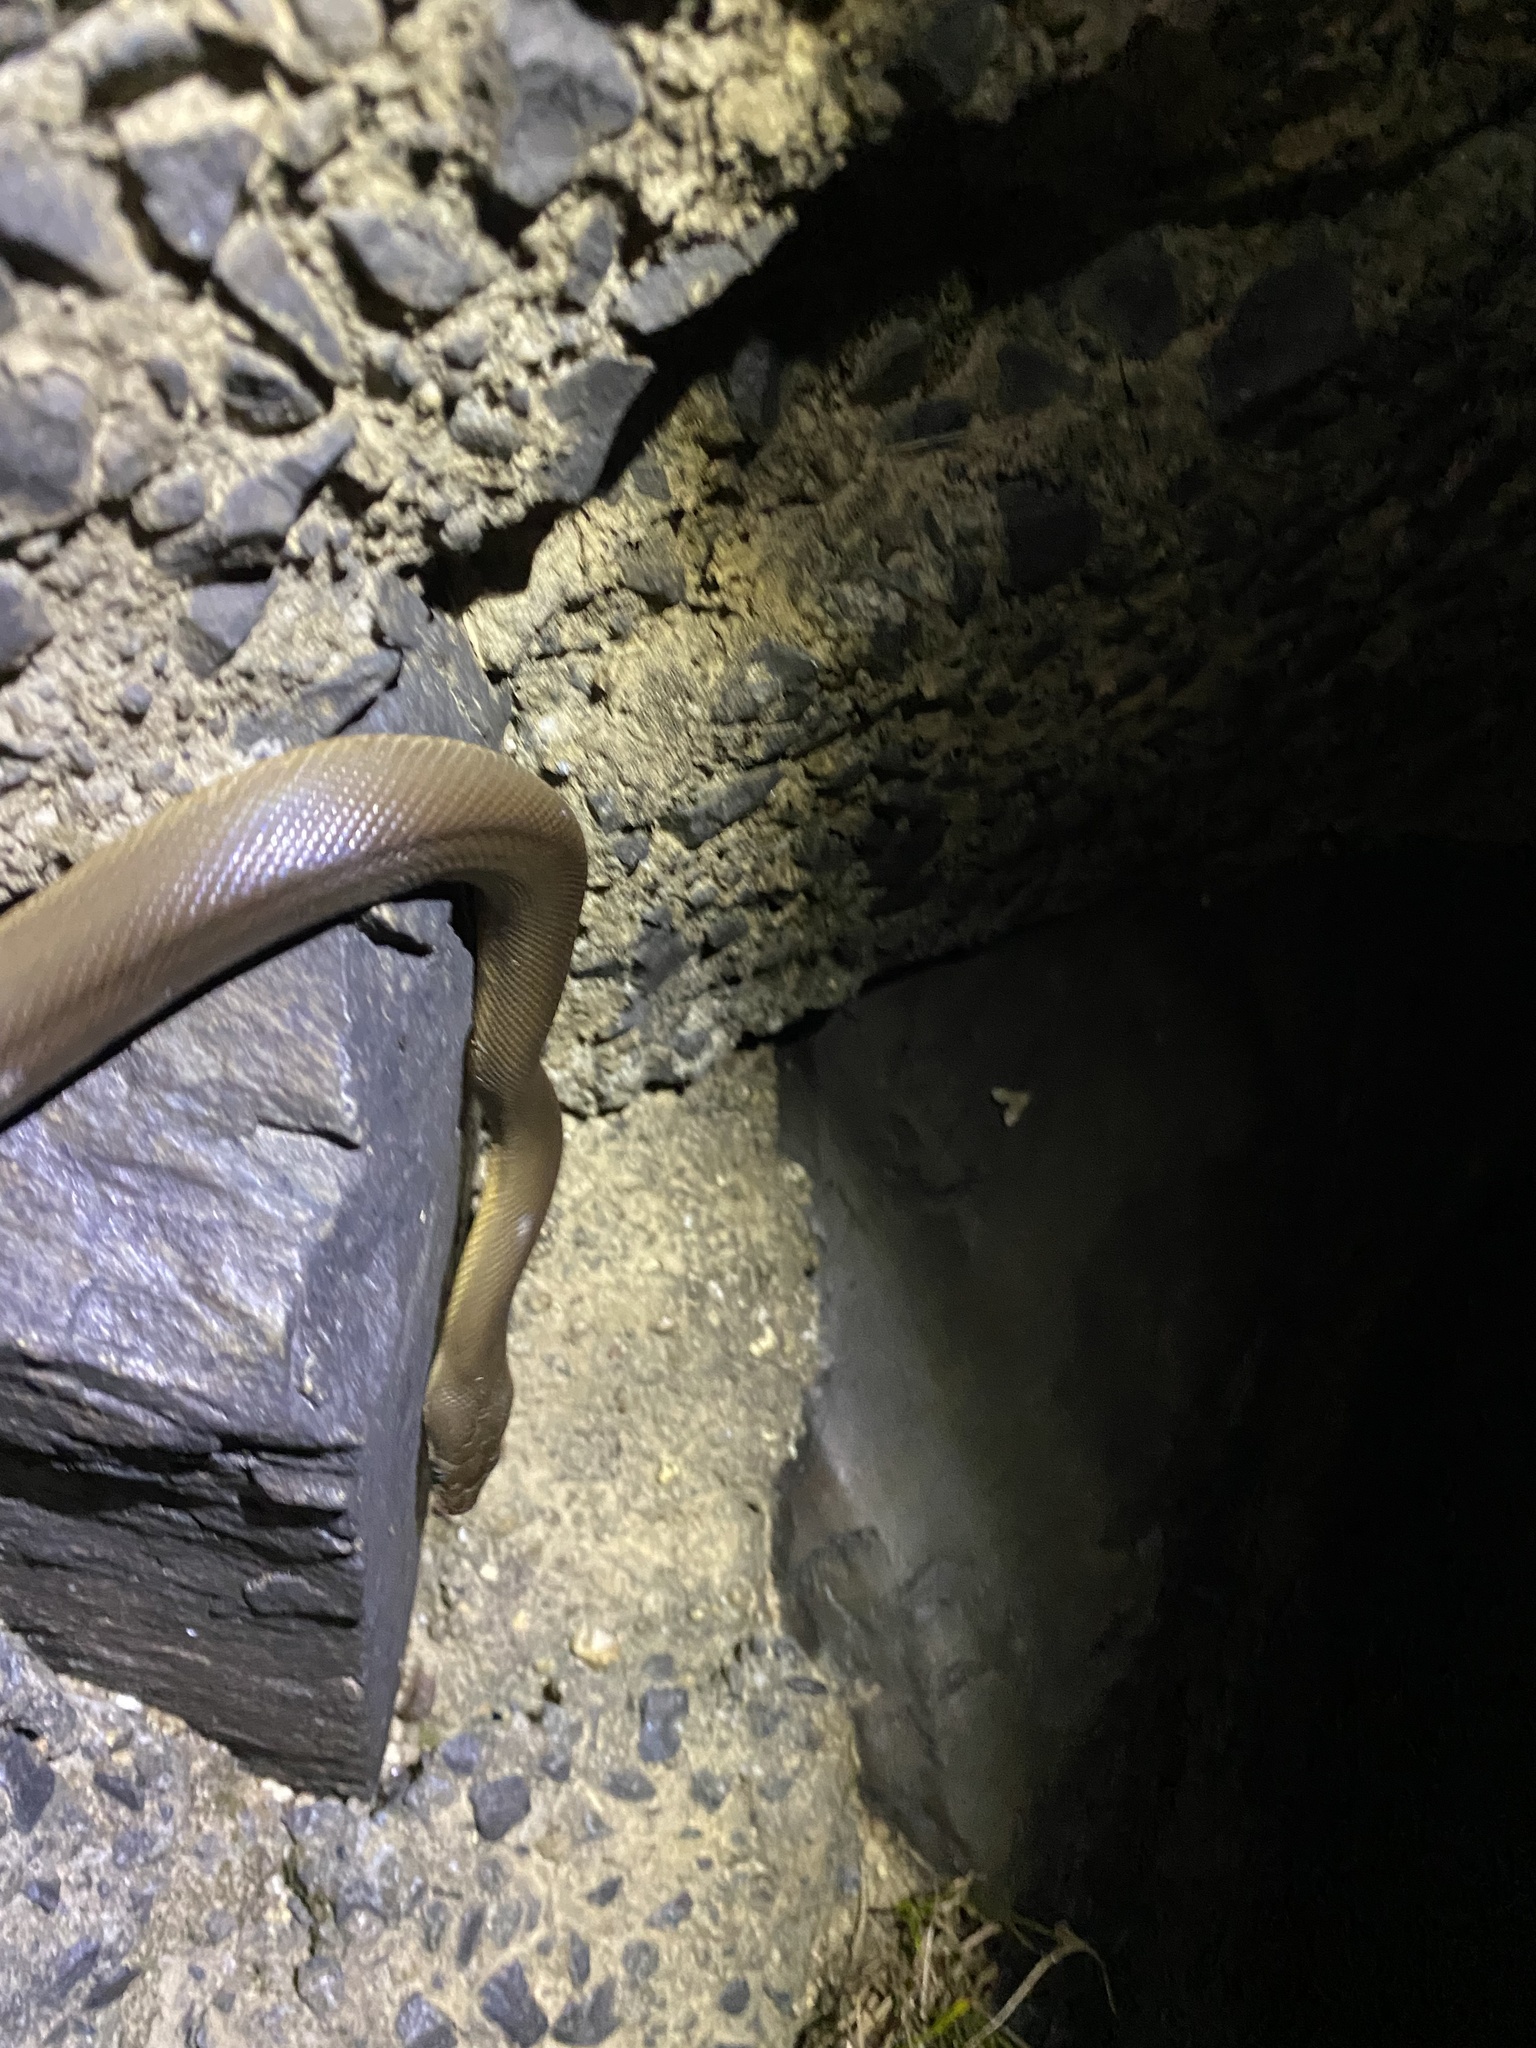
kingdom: Animalia
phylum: Chordata
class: Squamata
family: Pythonidae
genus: Liasis
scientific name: Liasis fuscus
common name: Brown water python
